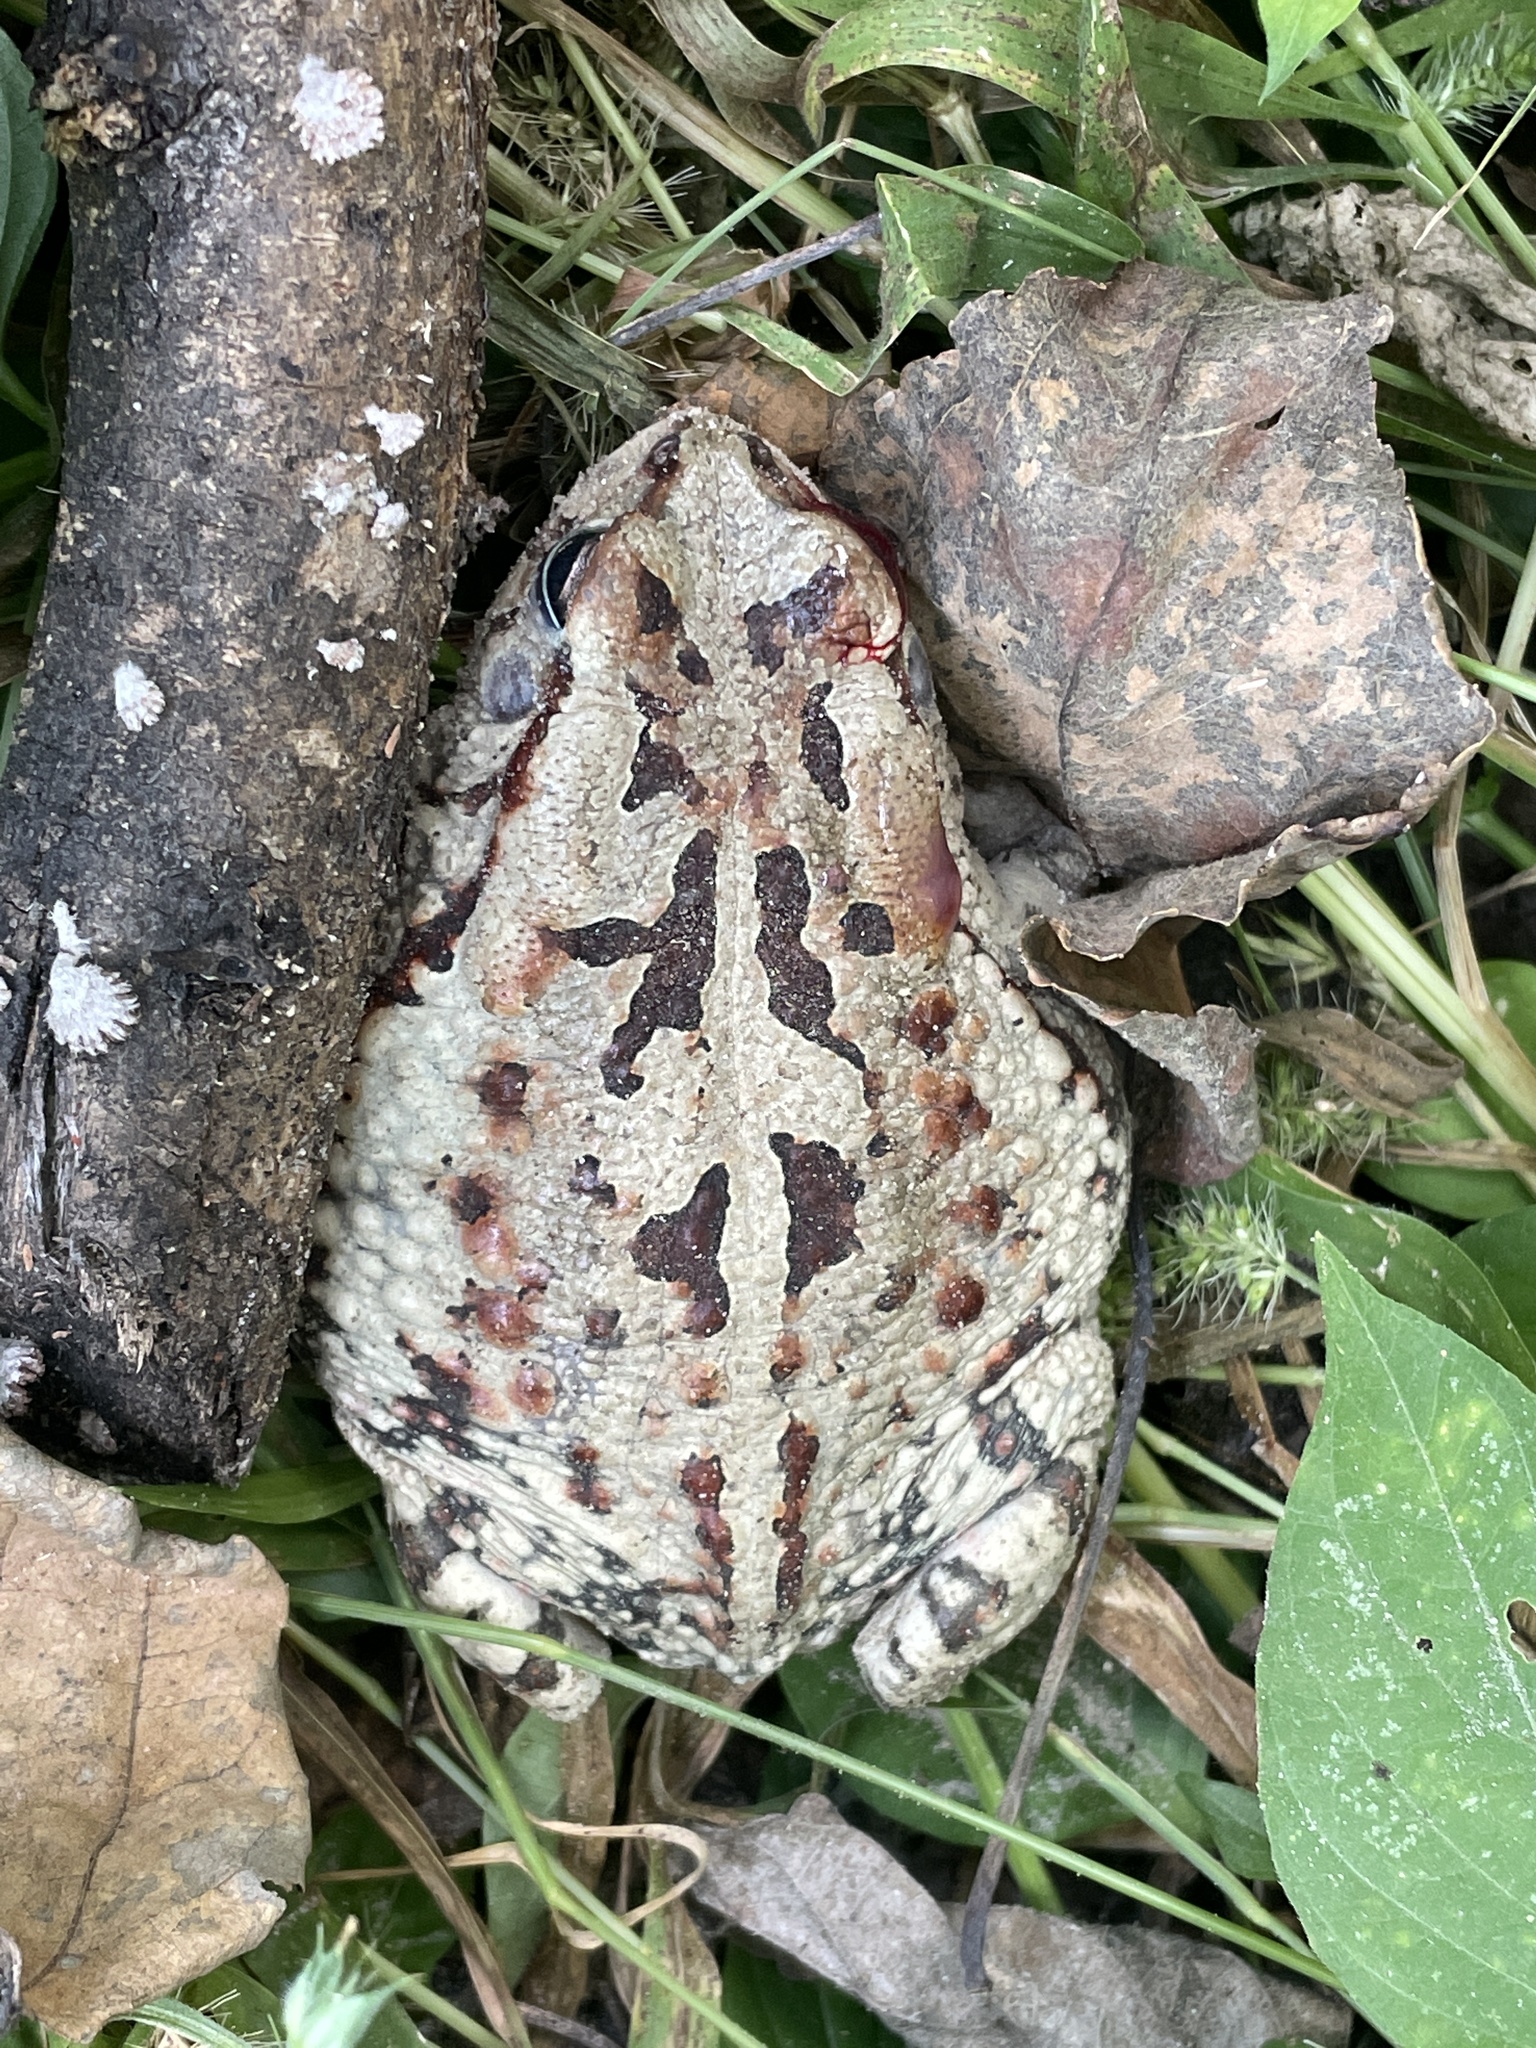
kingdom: Animalia
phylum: Chordata
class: Amphibia
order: Anura
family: Bufonidae
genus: Sclerophrys
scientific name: Sclerophrys poweri
